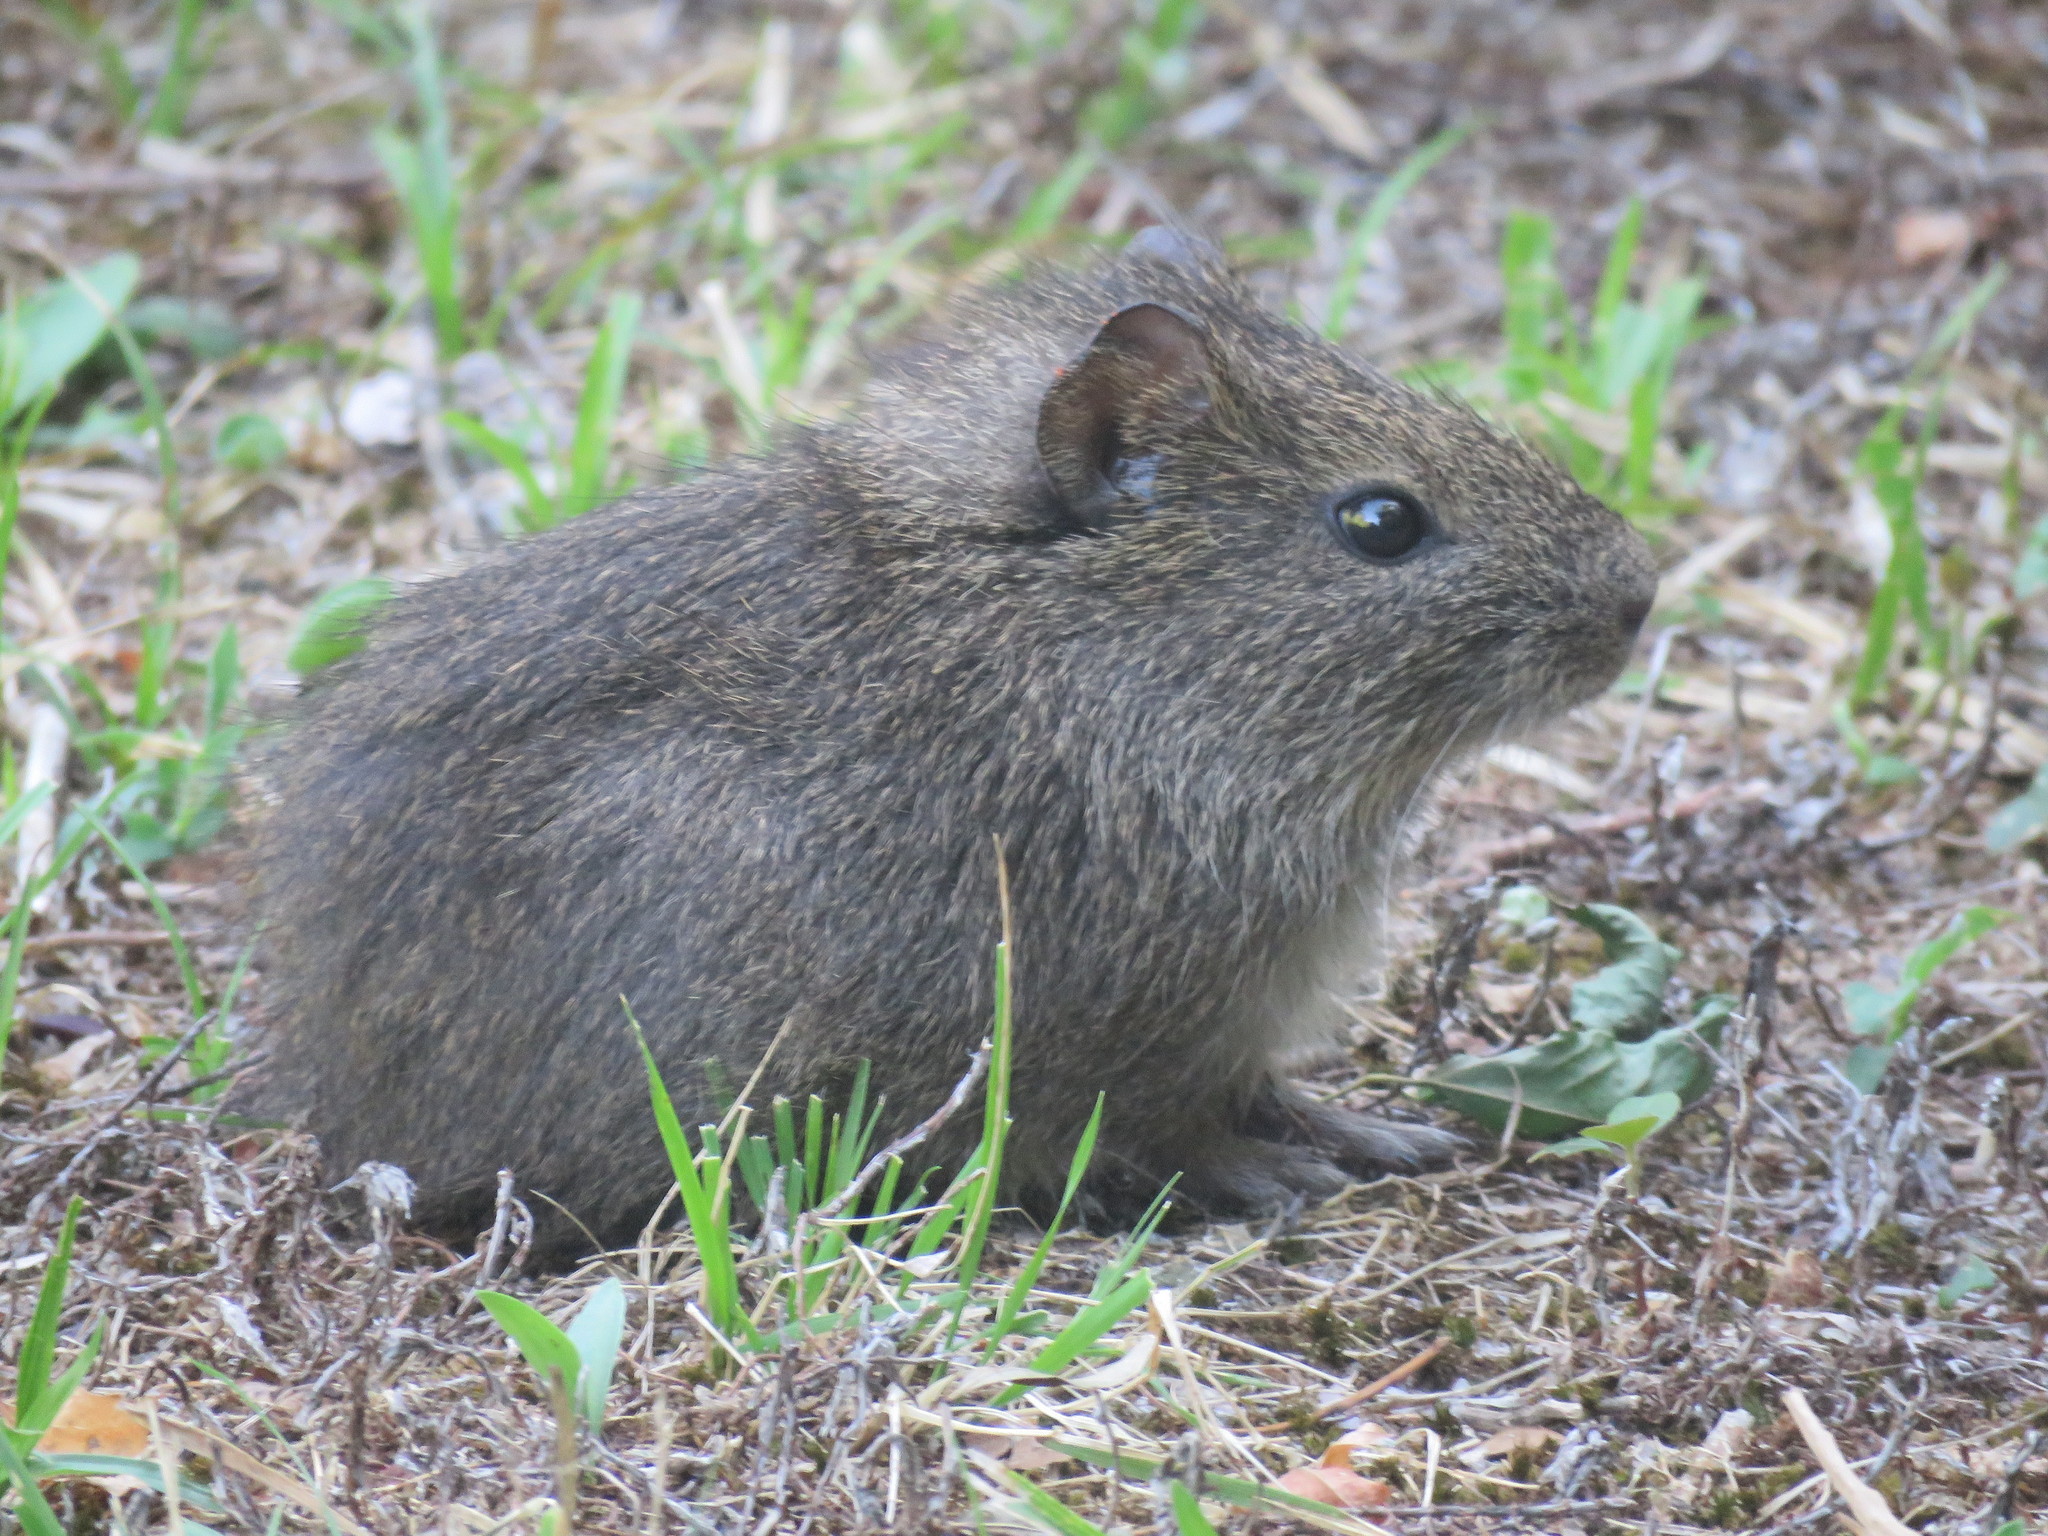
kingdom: Animalia
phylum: Chordata
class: Mammalia
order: Rodentia
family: Caviidae
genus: Cavia
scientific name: Cavia aperea
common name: Brazilian guinea pig
